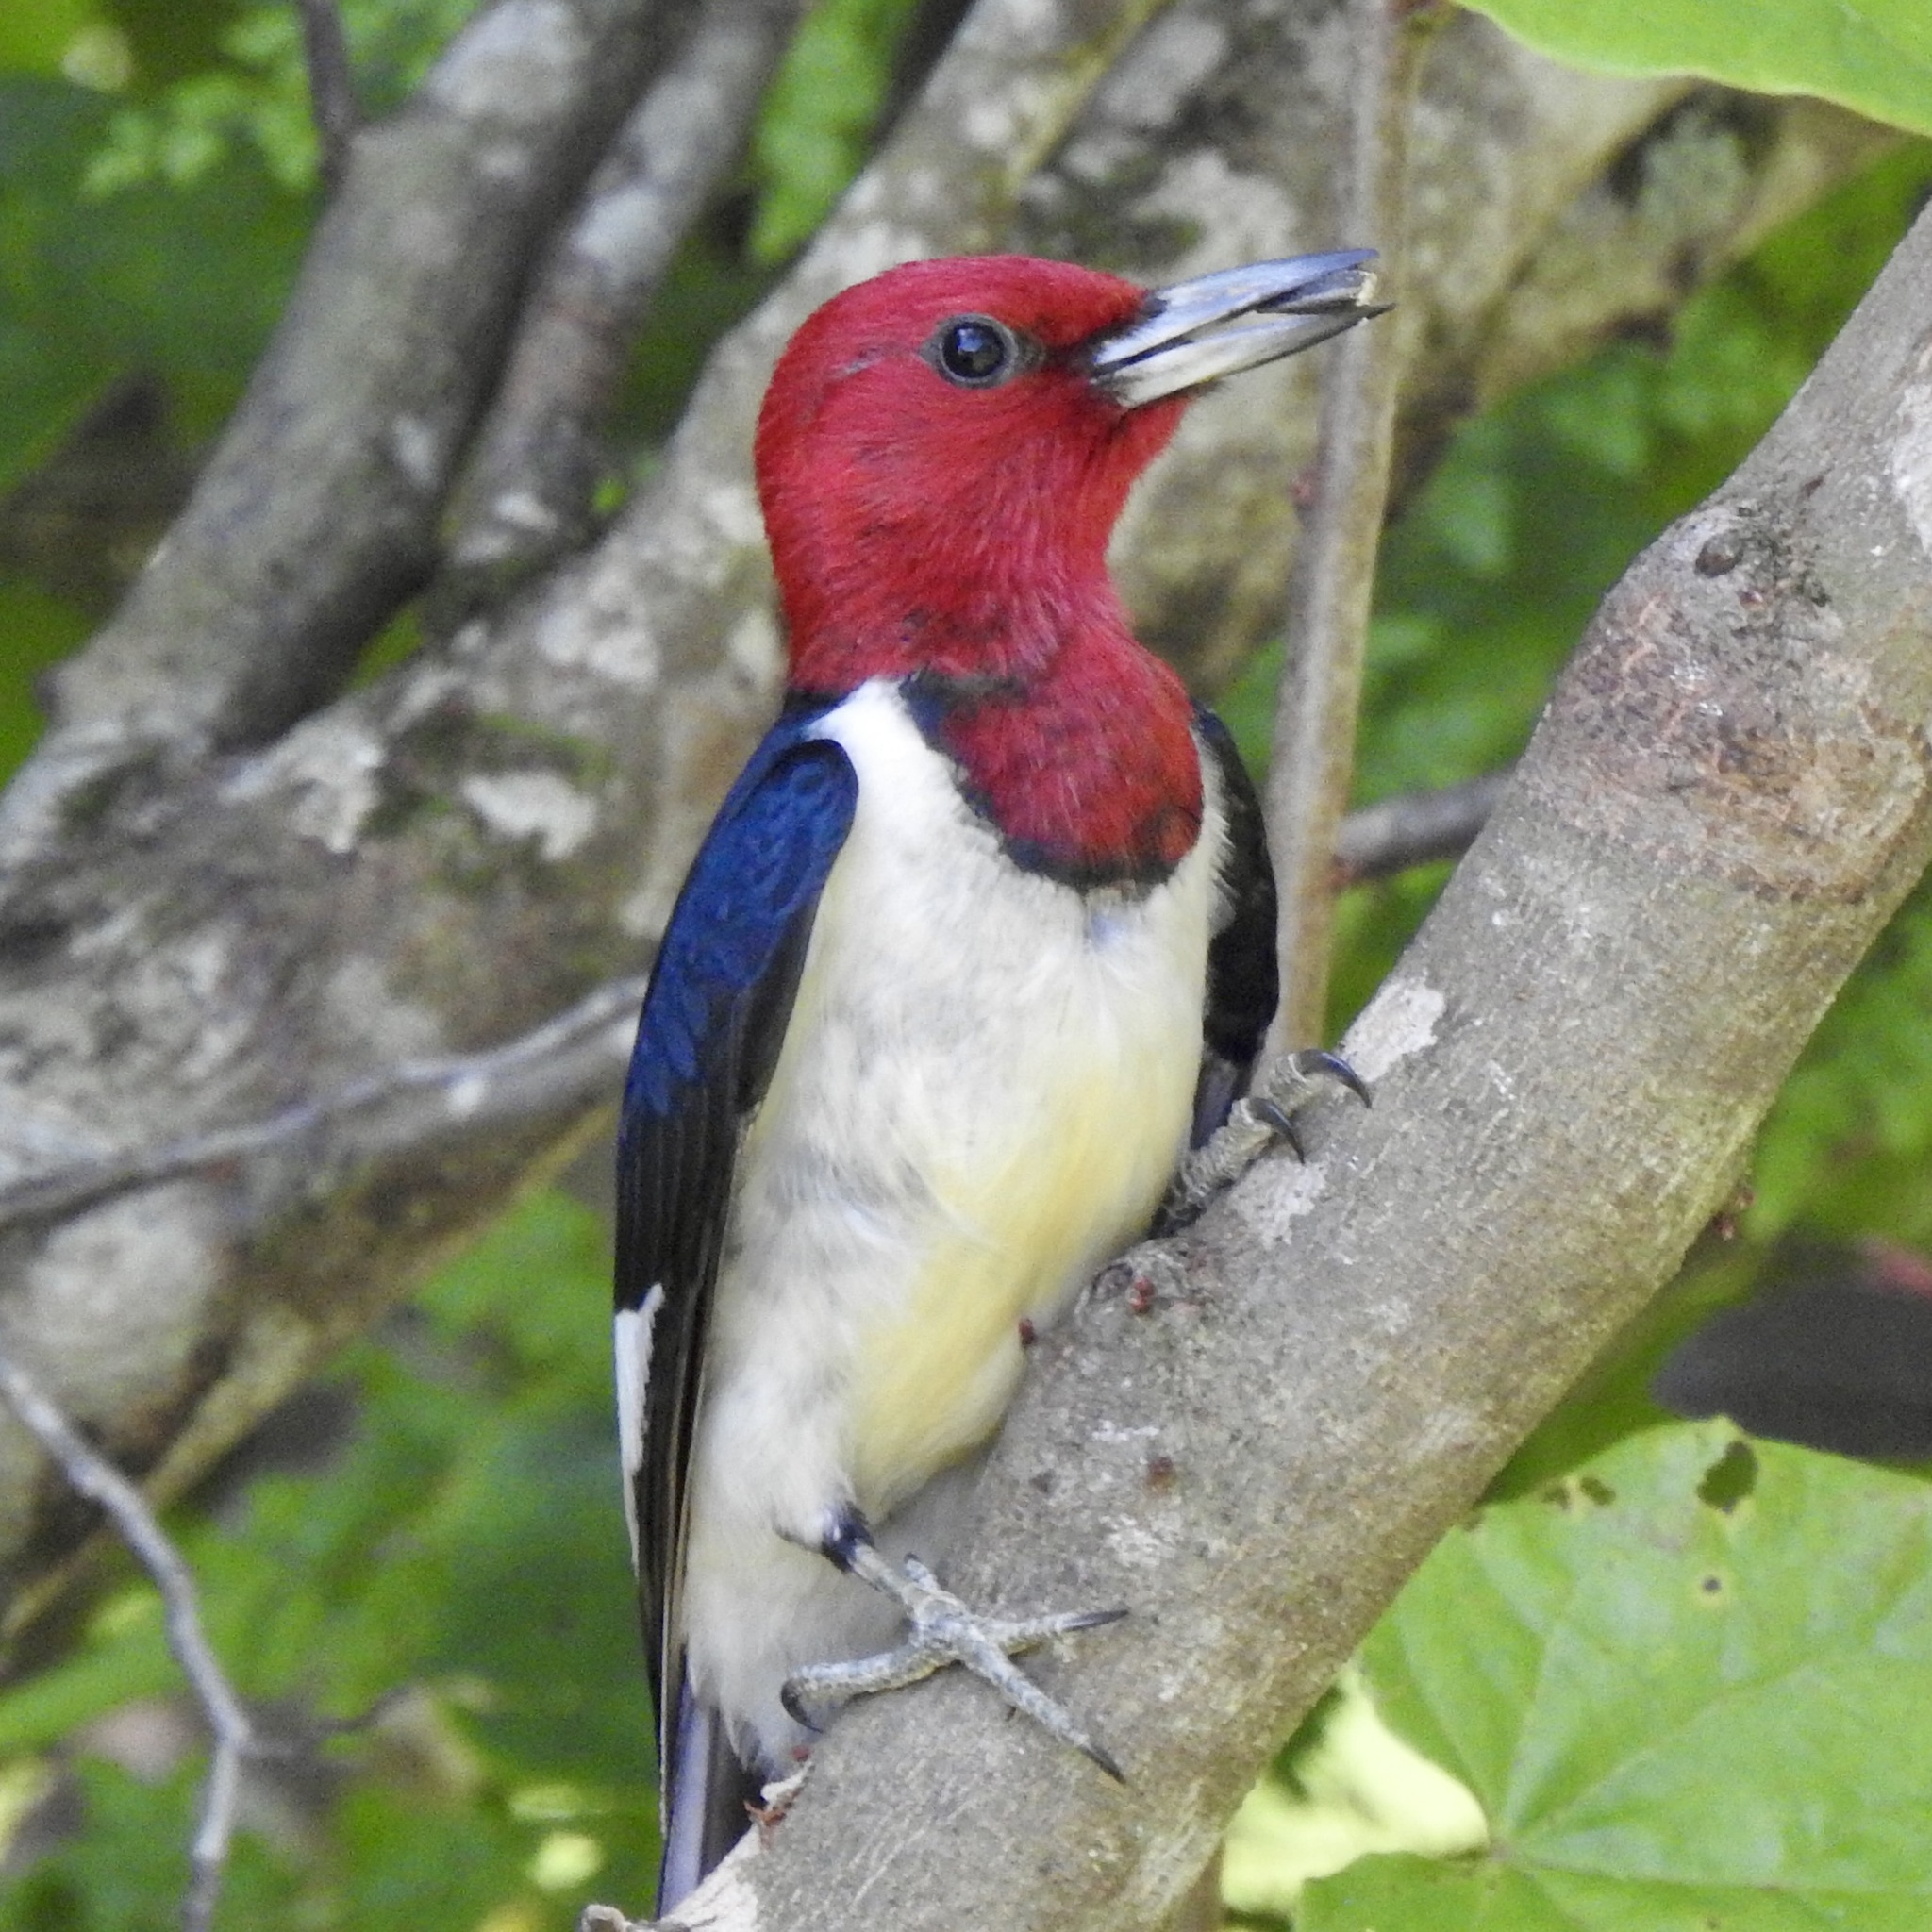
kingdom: Animalia
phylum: Chordata
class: Aves
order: Piciformes
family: Picidae
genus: Melanerpes
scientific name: Melanerpes erythrocephalus
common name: Red-headed woodpecker
